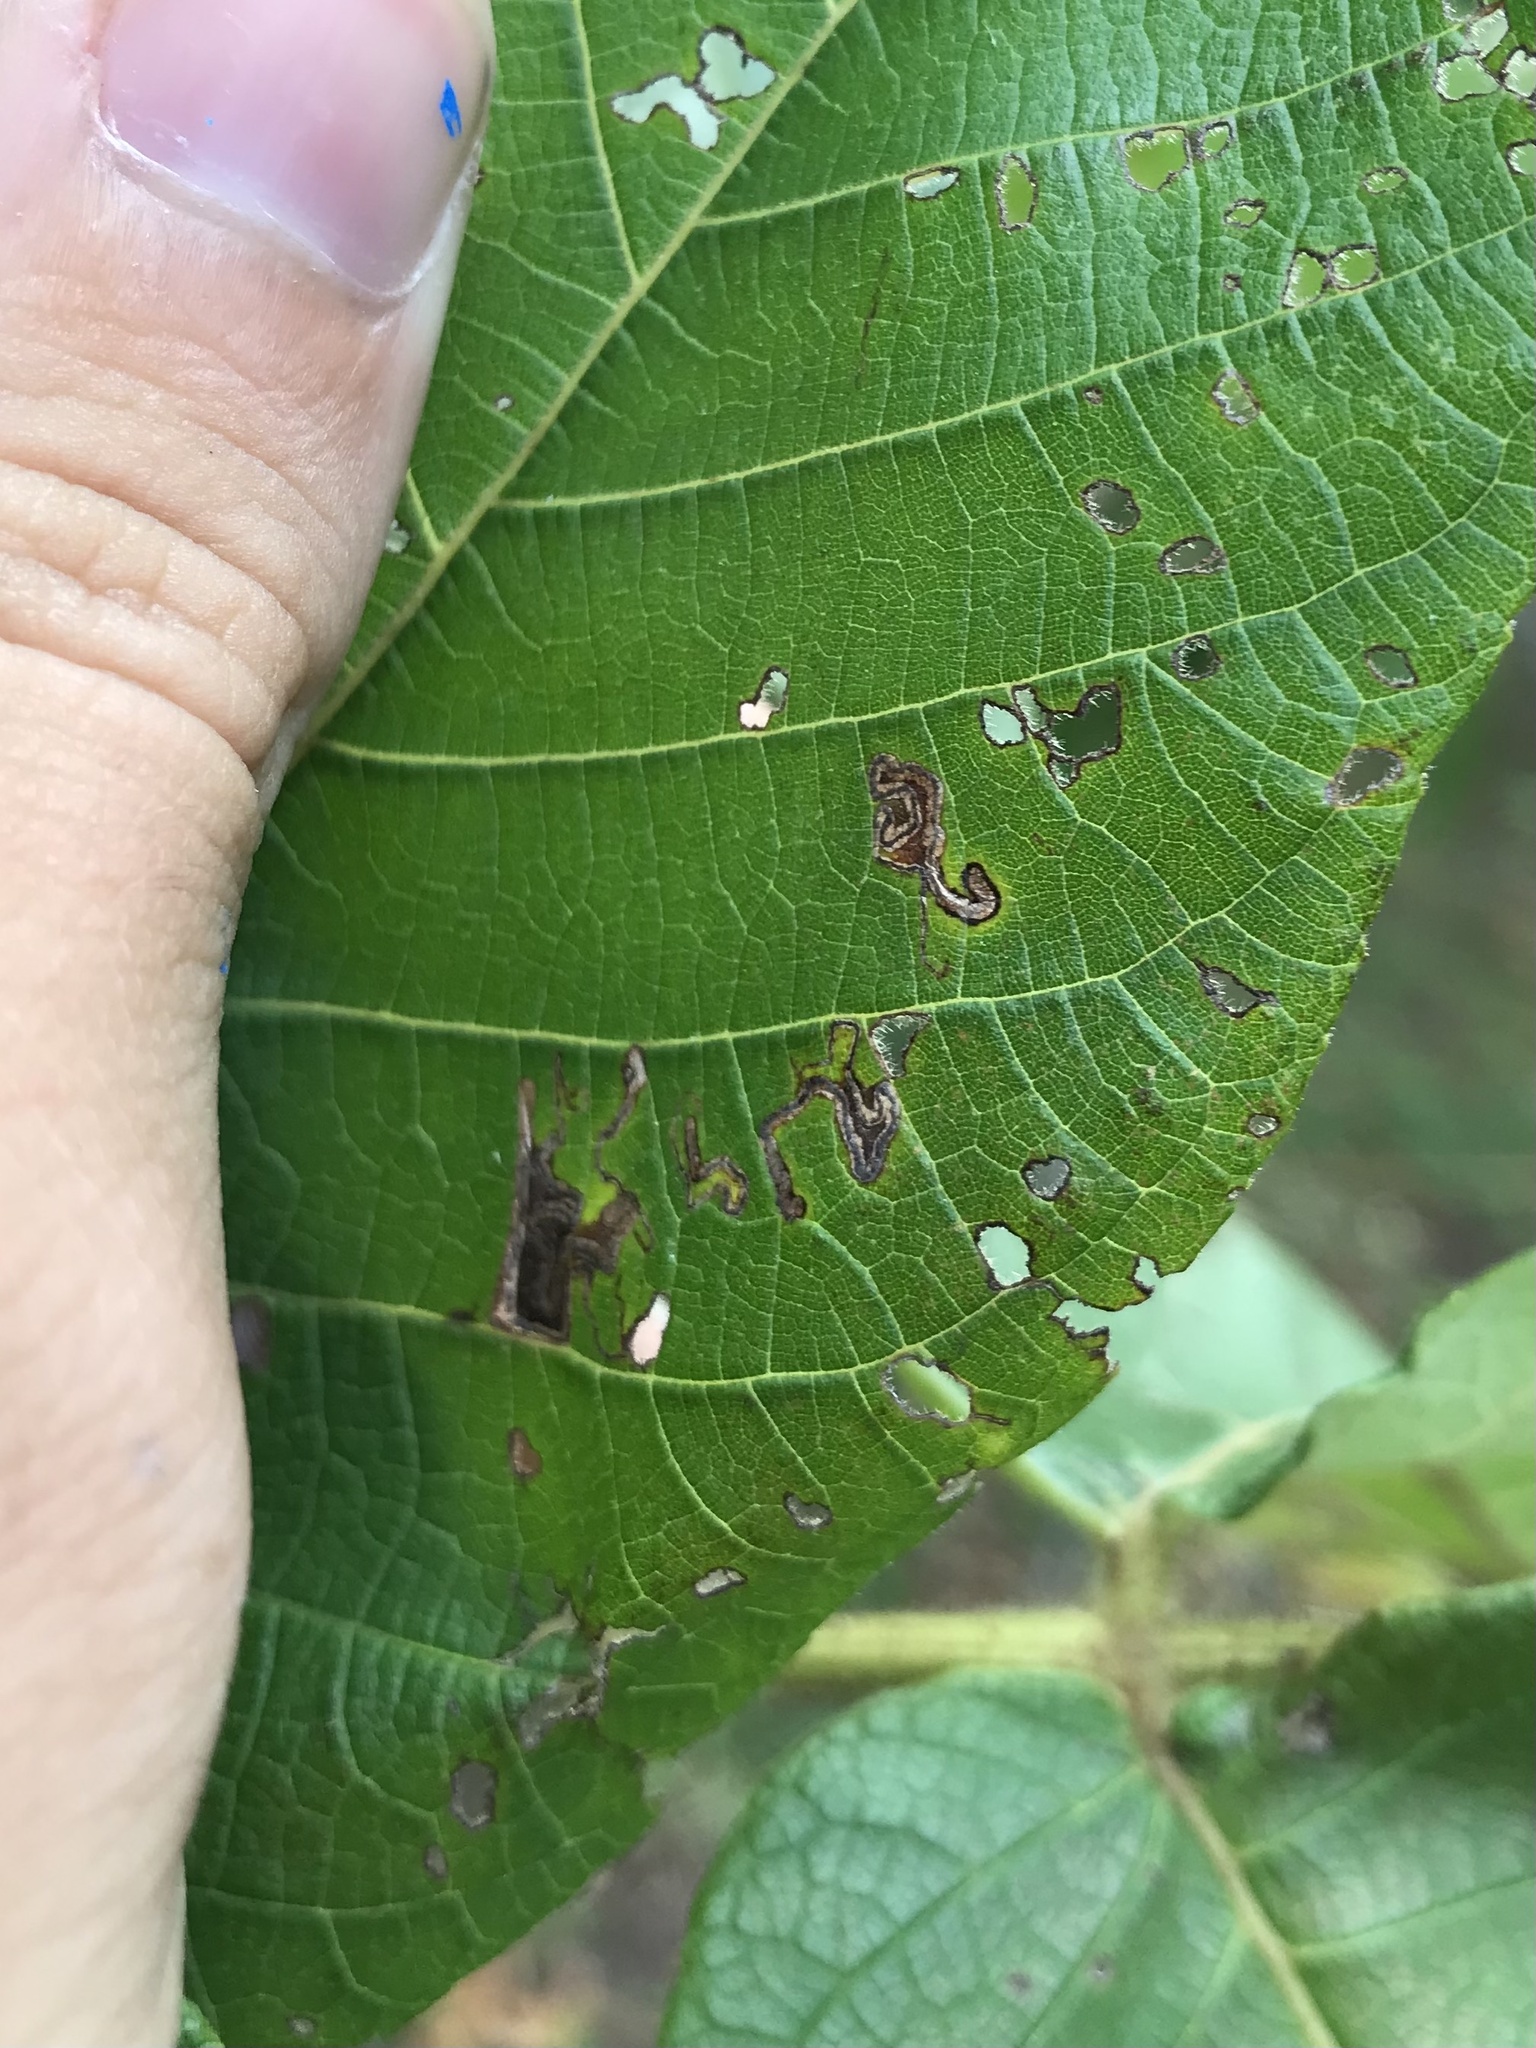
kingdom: Animalia
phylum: Arthropoda
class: Insecta
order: Lepidoptera
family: Nepticulidae
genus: Stigmella
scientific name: Stigmella juglandifoliella
